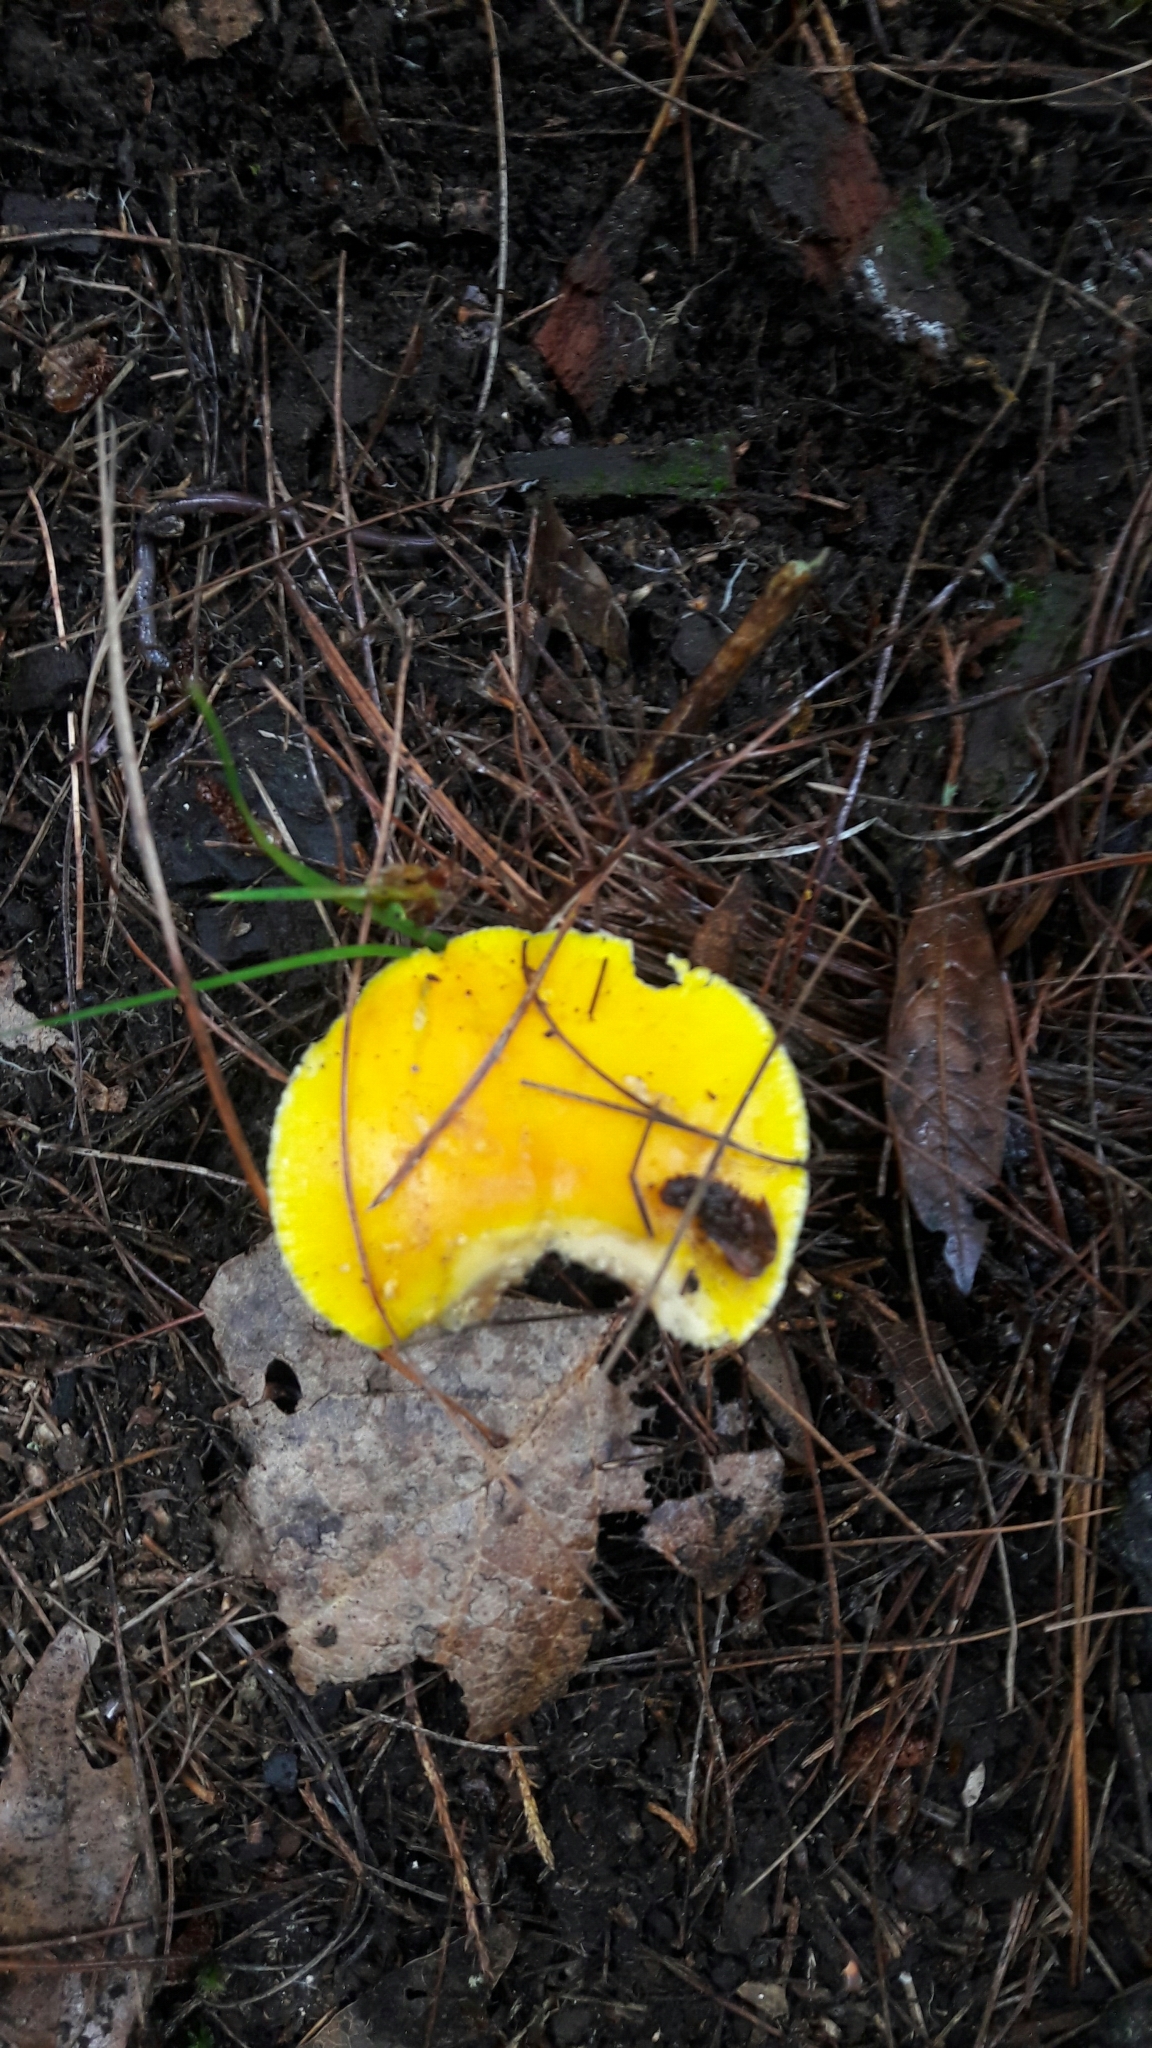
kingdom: Fungi
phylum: Basidiomycota
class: Agaricomycetes
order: Agaricales
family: Amanitaceae
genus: Amanita
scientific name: Amanita flavoconia
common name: Yellow patches
